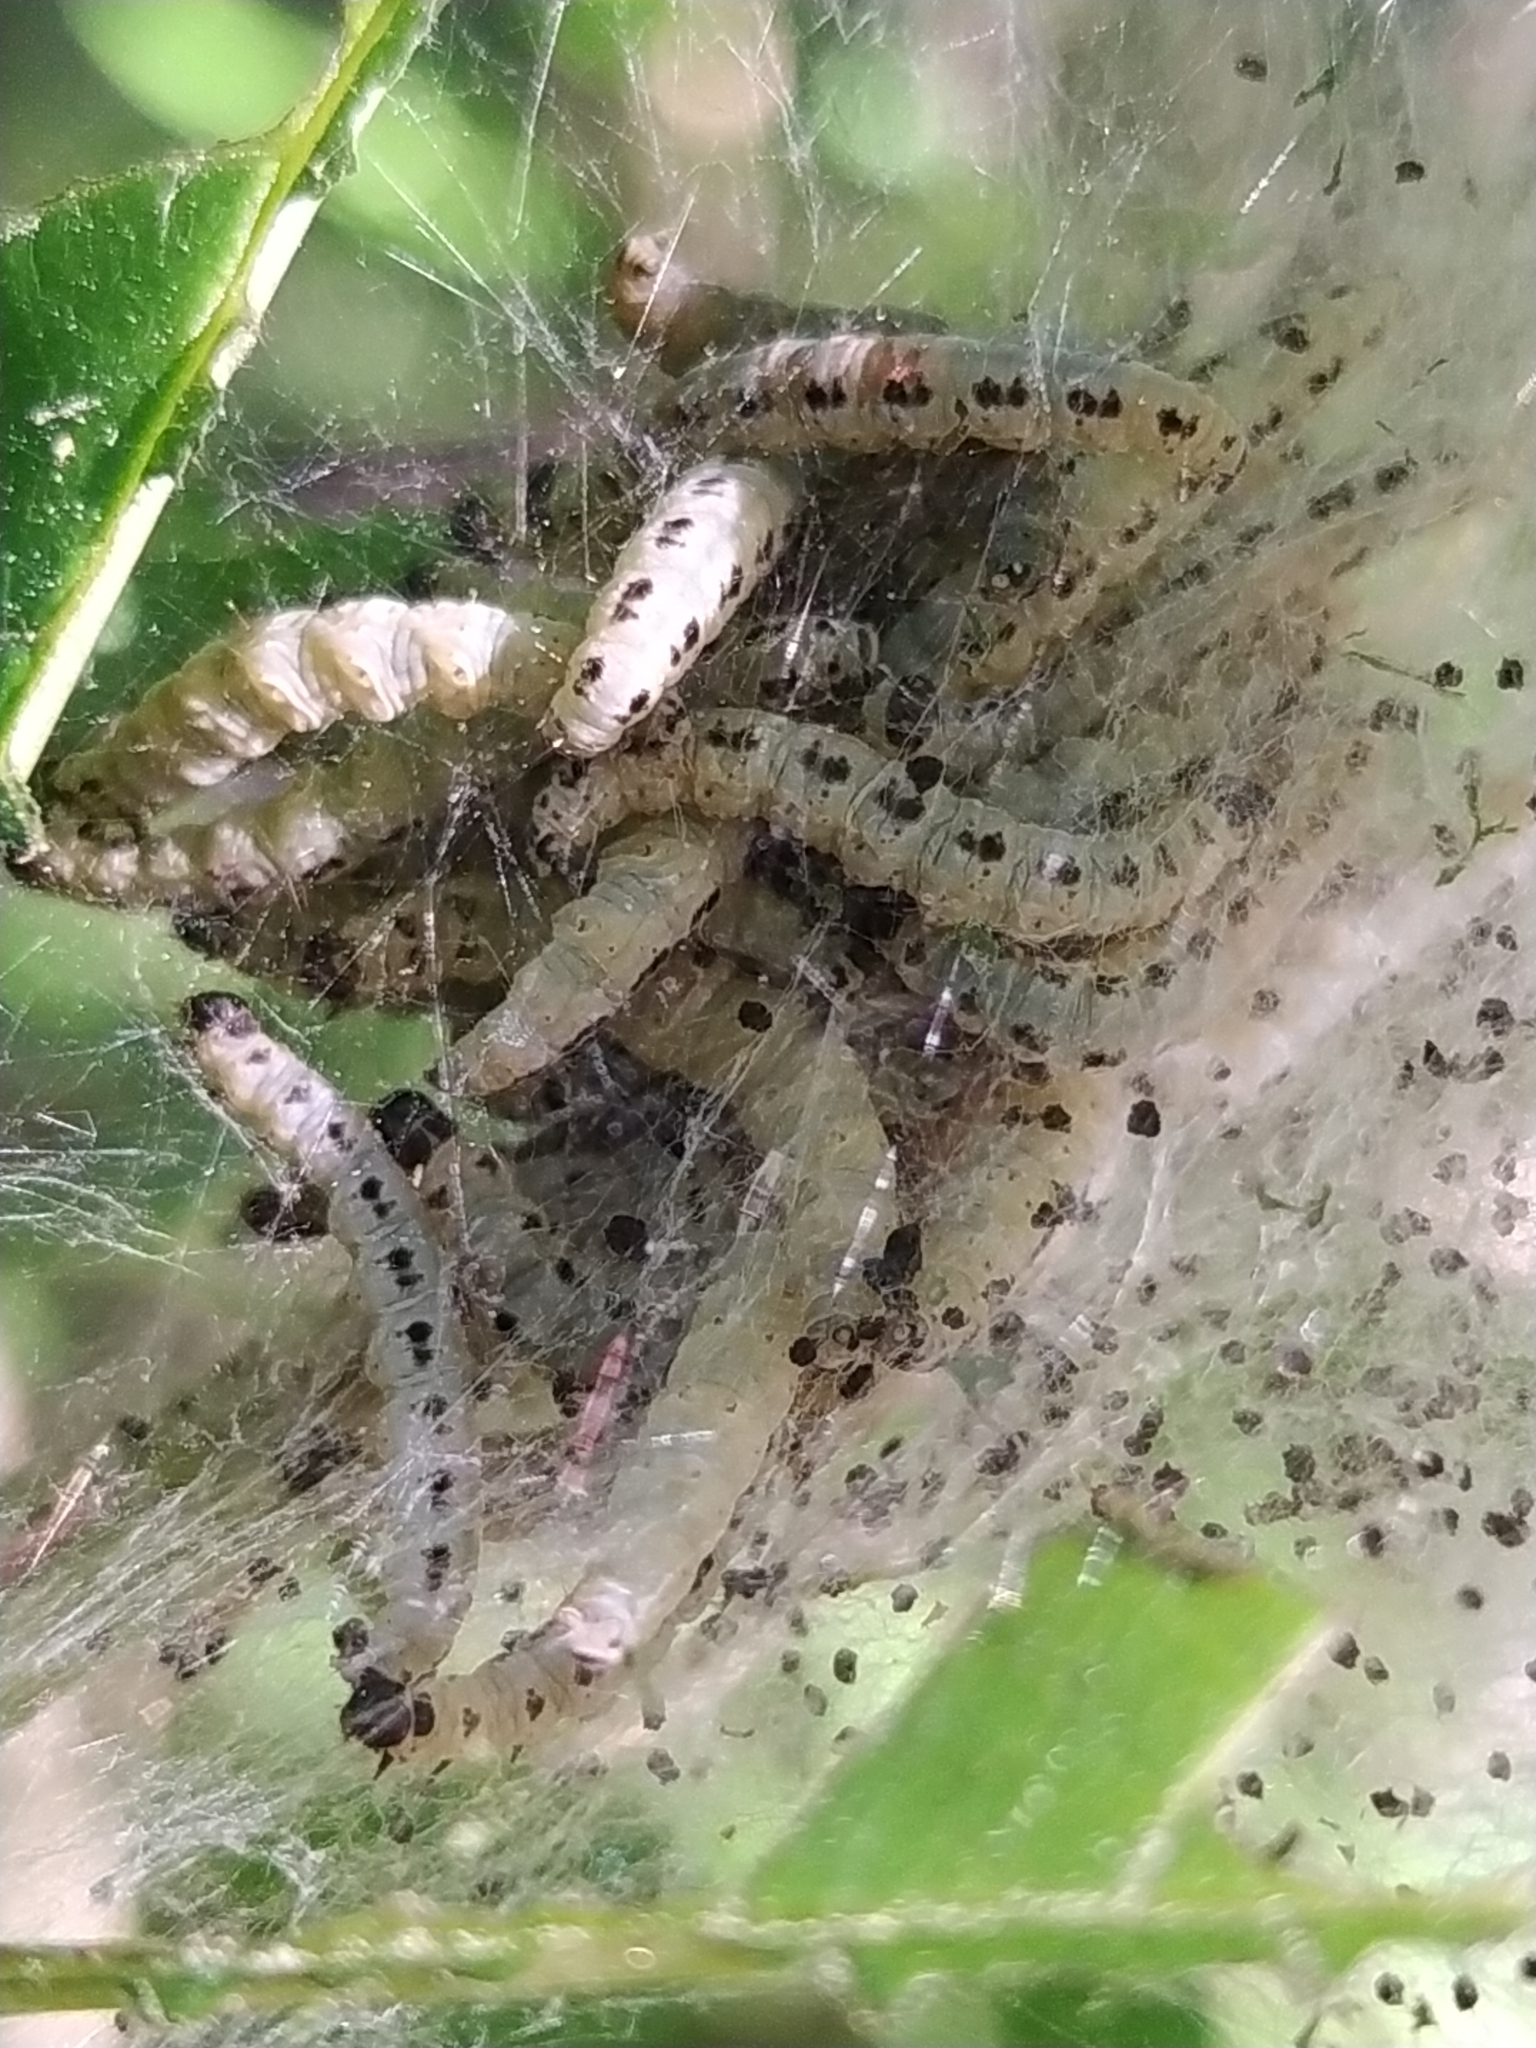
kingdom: Animalia
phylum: Arthropoda
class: Insecta
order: Lepidoptera
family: Yponomeutidae
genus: Yponomeuta
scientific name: Yponomeuta evonymella
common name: Bird-cherry ermine
